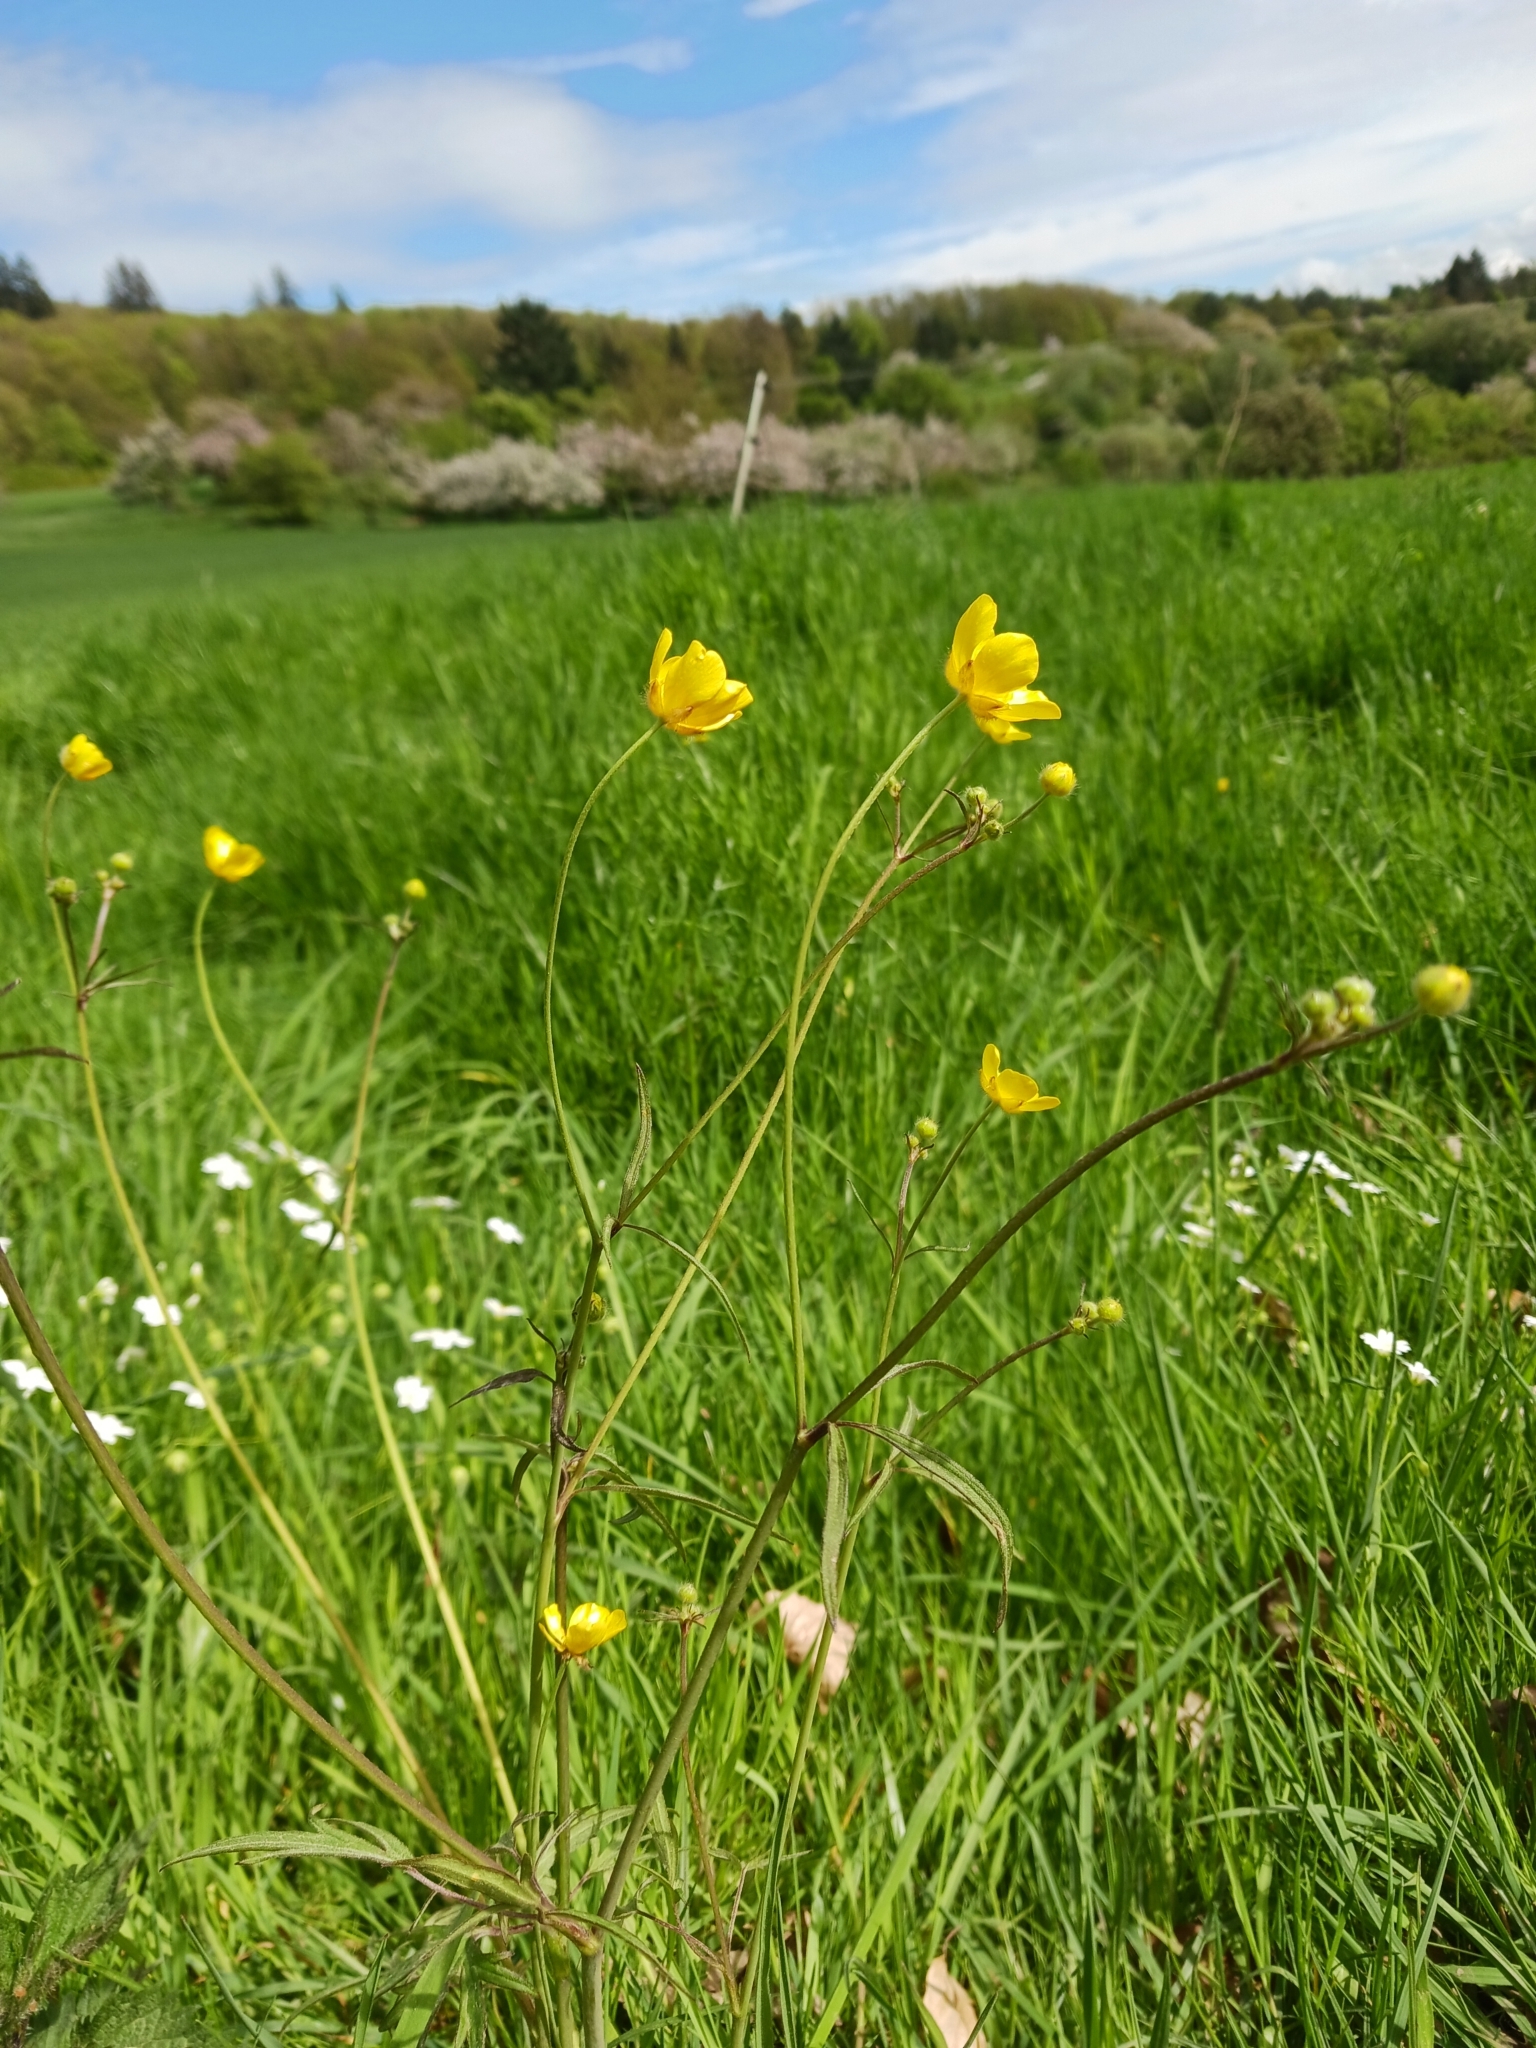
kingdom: Plantae
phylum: Tracheophyta
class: Magnoliopsida
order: Ranunculales
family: Ranunculaceae
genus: Ranunculus
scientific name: Ranunculus acris
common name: Meadow buttercup
